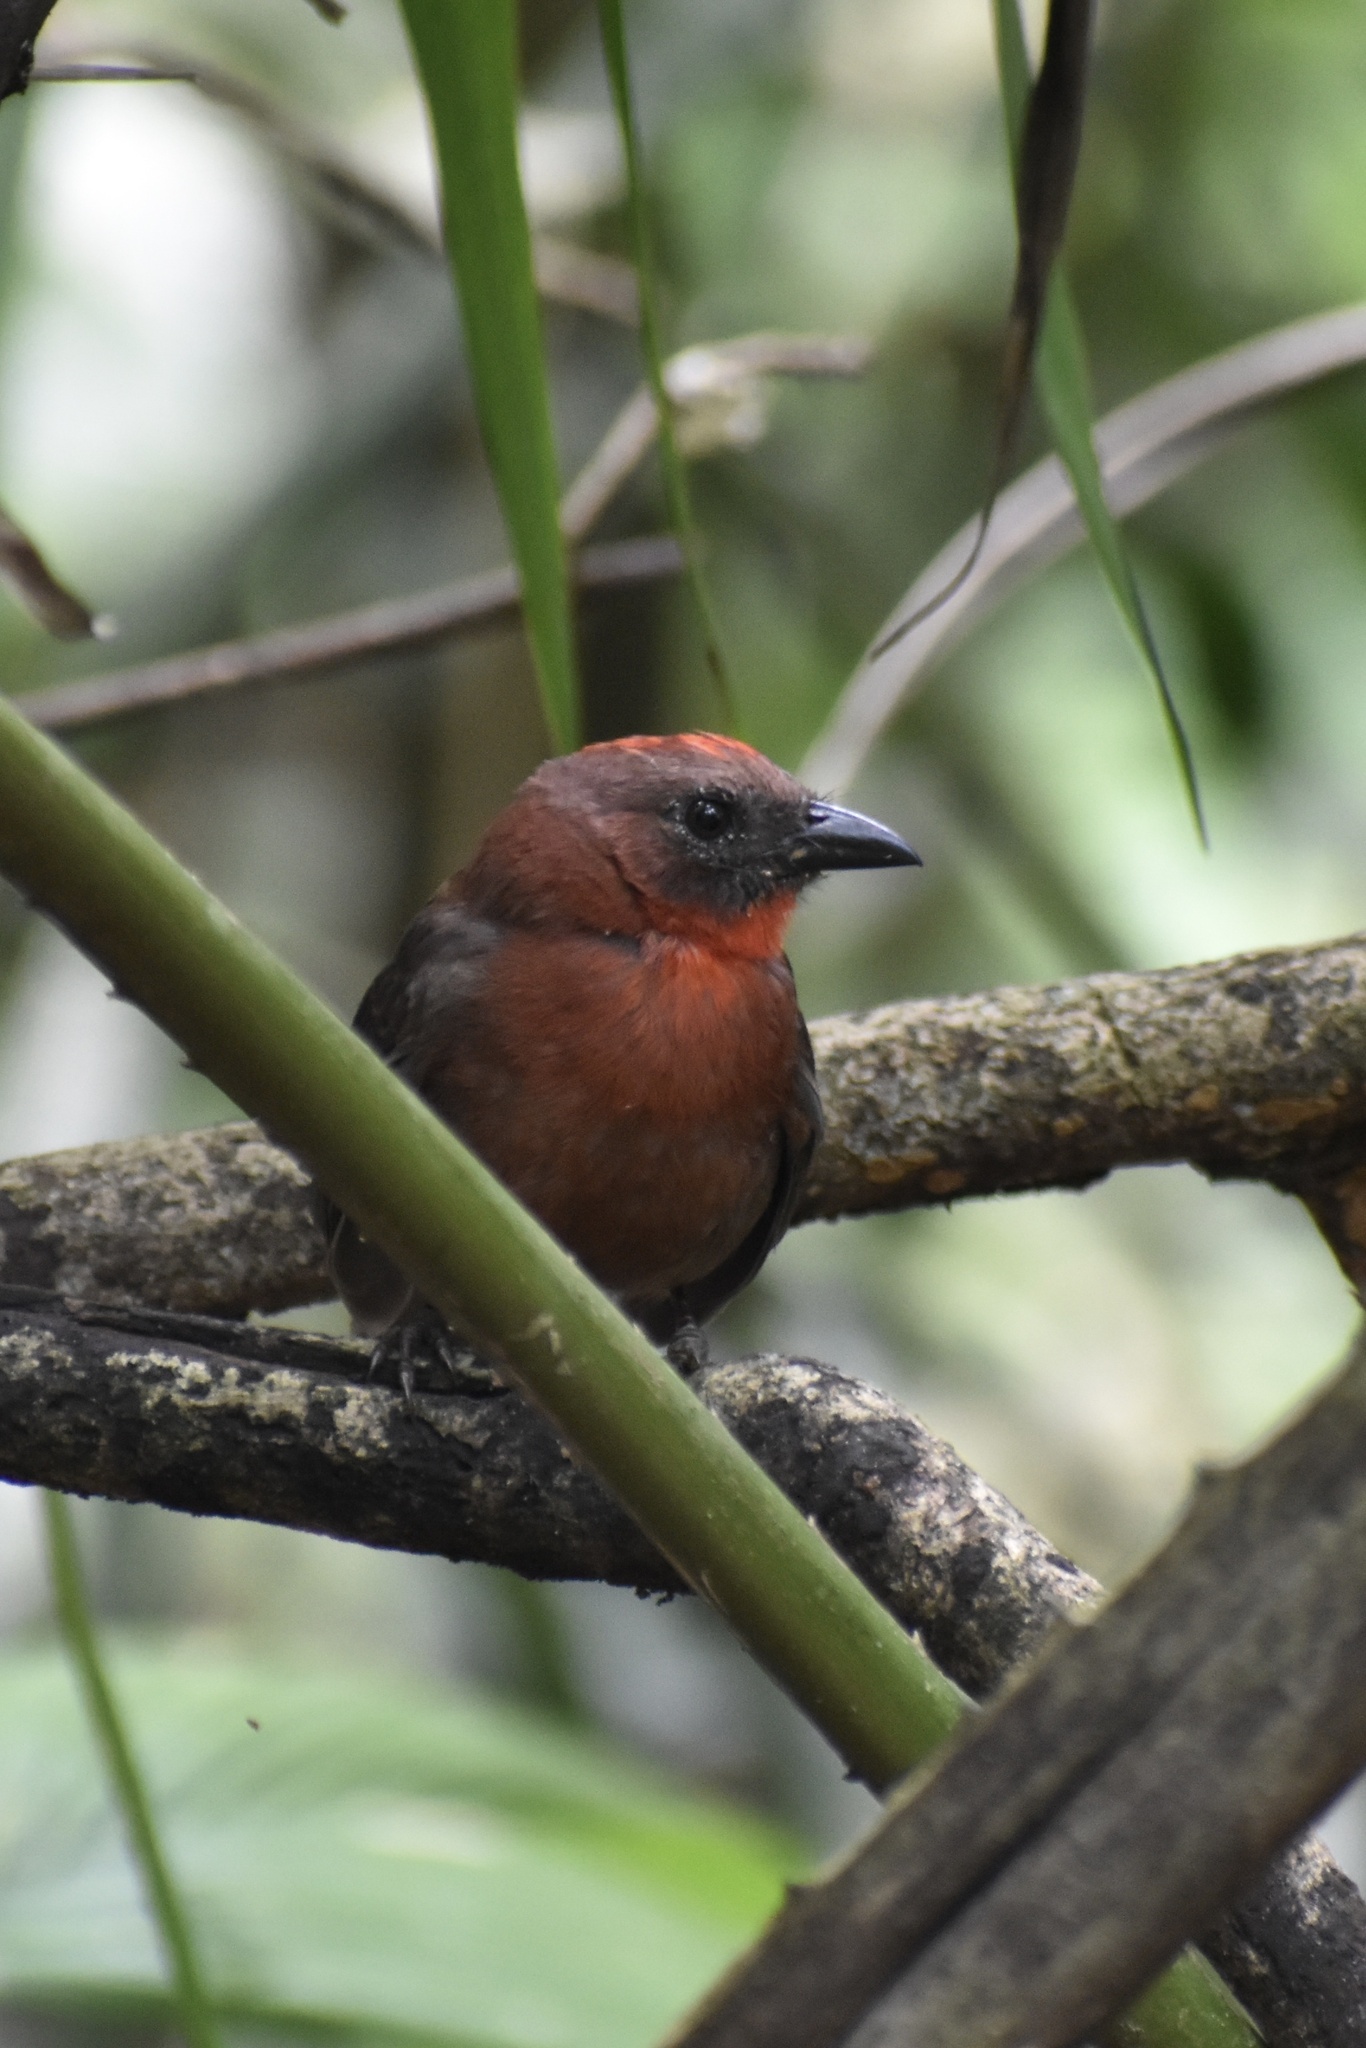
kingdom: Animalia
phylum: Chordata
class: Aves
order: Passeriformes
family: Cardinalidae
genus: Habia
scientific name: Habia fuscicauda
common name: Red-throated ant-tanager
